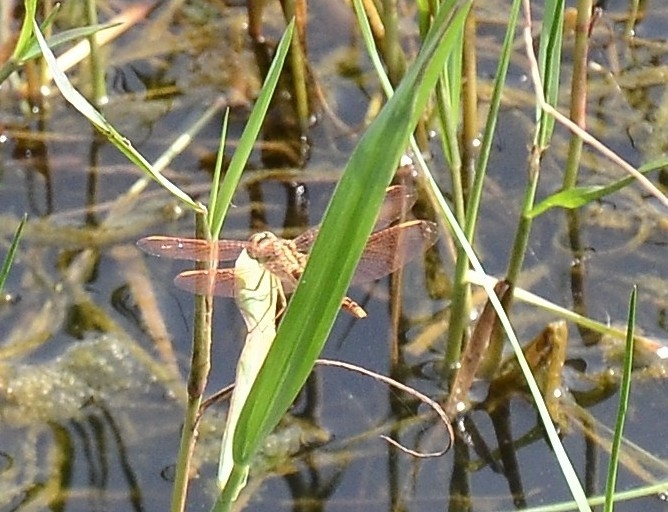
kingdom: Animalia
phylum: Arthropoda
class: Insecta
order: Odonata
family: Libellulidae
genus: Brachythemis
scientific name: Brachythemis contaminata
